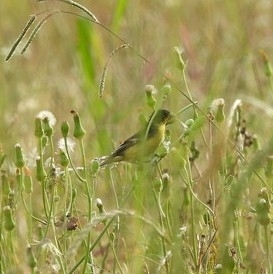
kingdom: Animalia
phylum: Chordata
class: Aves
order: Passeriformes
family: Fringillidae
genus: Spinus
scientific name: Spinus psaltria
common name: Lesser goldfinch
